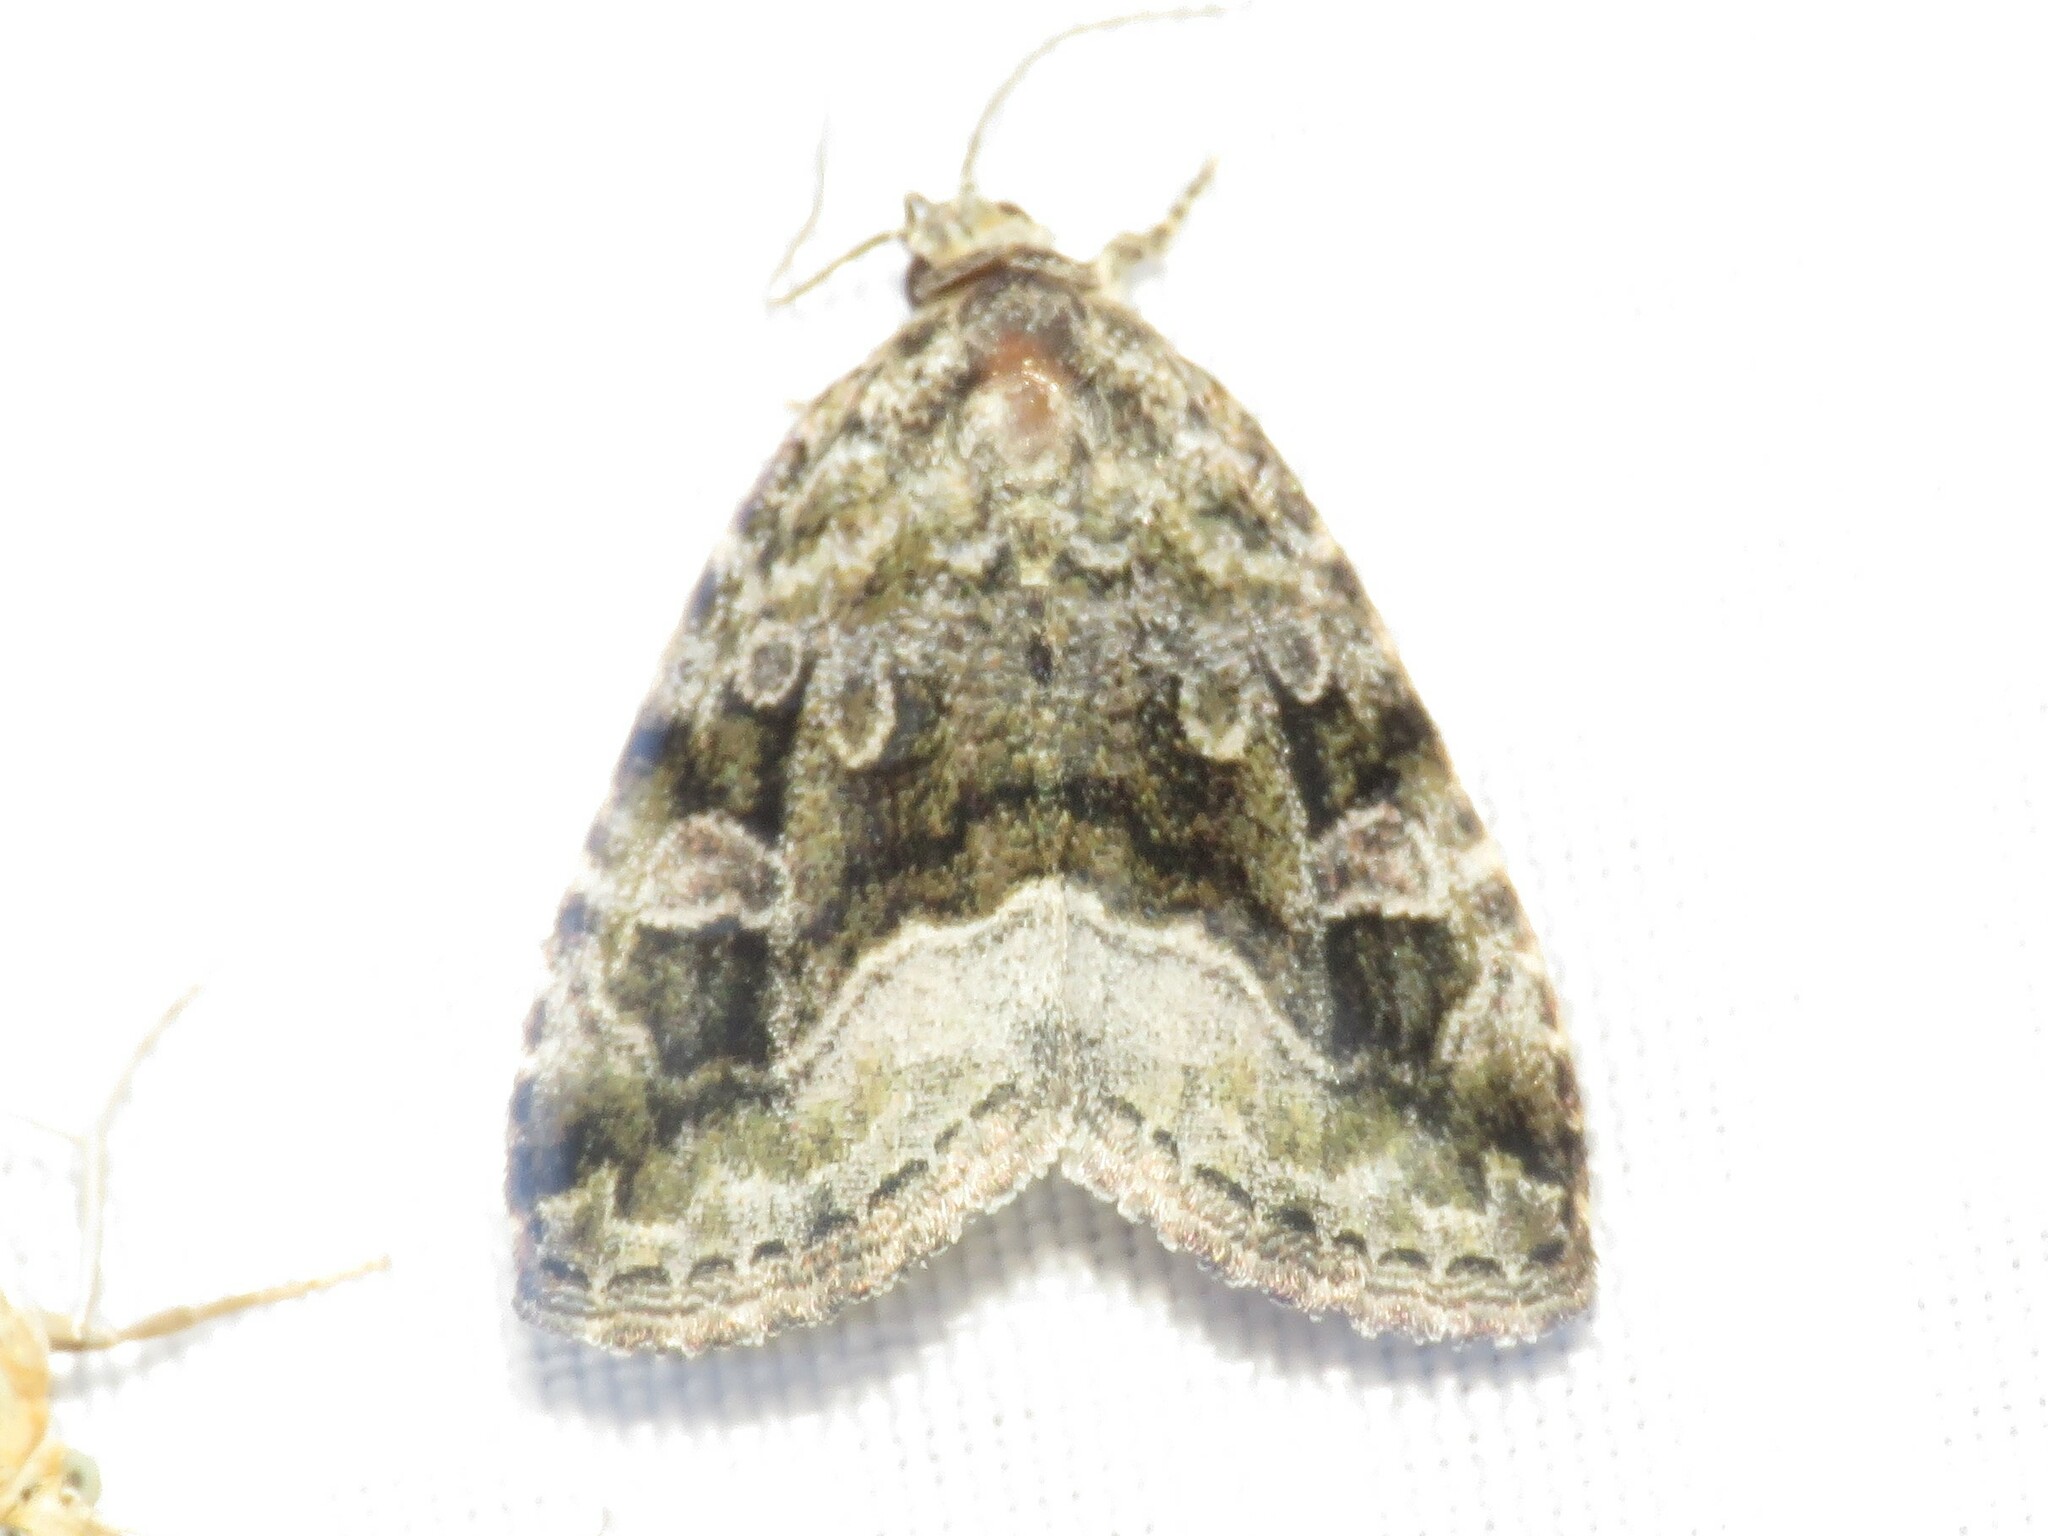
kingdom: Animalia
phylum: Arthropoda
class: Insecta
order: Lepidoptera
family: Noctuidae
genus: Protodeltote
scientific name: Protodeltote muscosula
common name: Large mossy glyph
